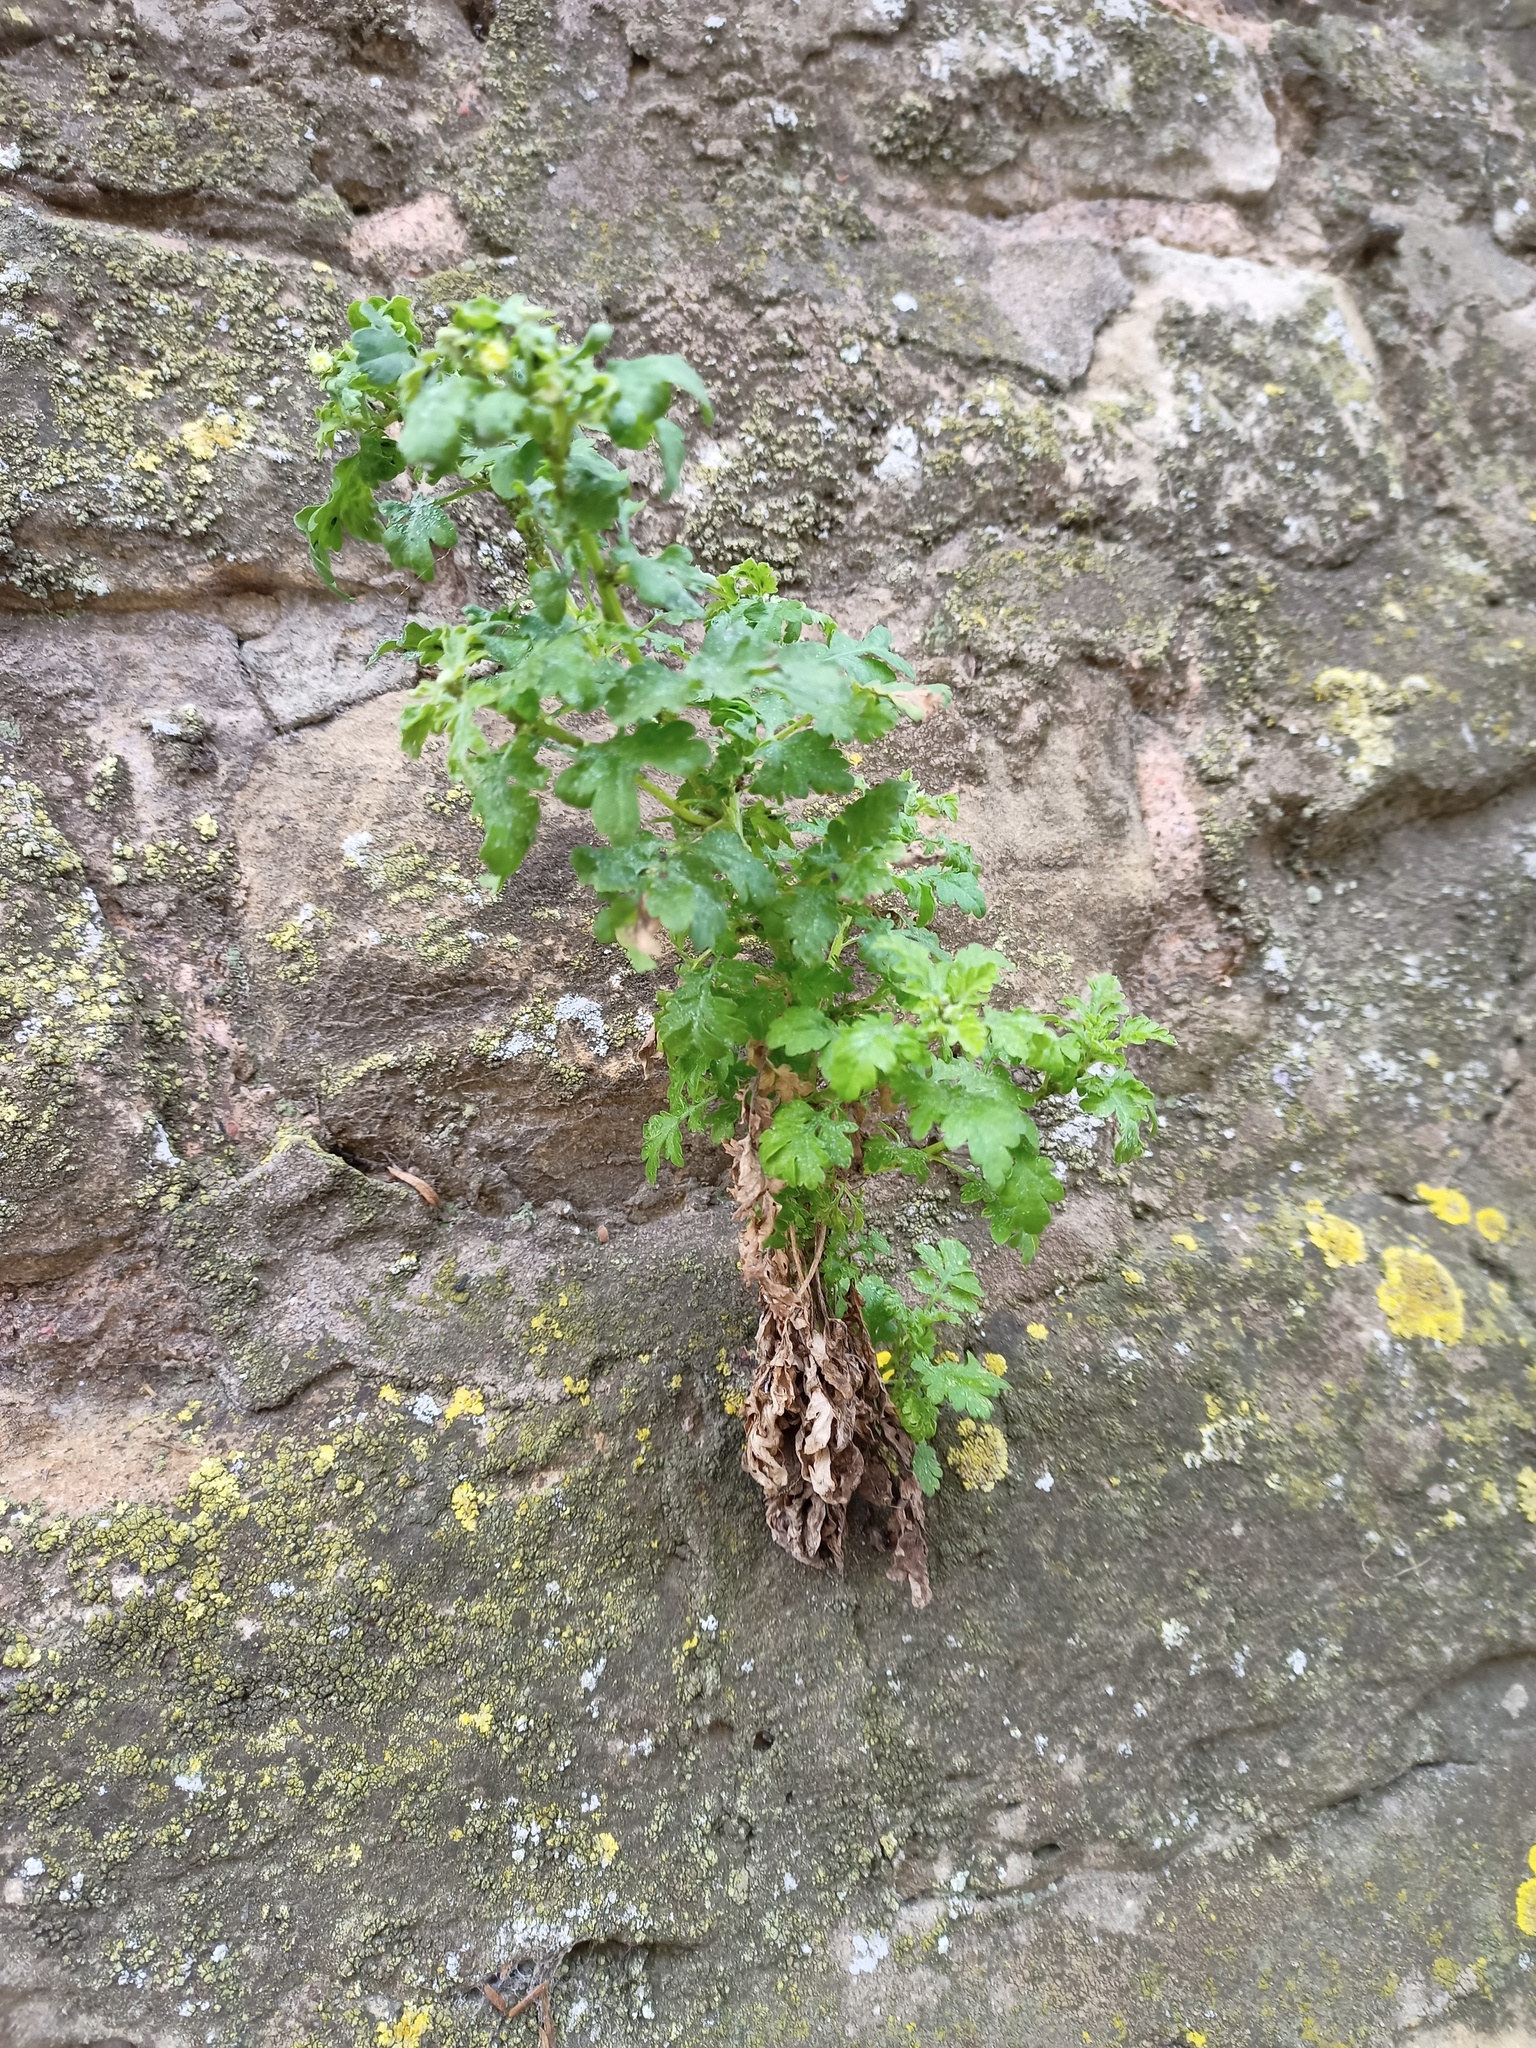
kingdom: Plantae
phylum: Tracheophyta
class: Magnoliopsida
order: Asterales
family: Asteraceae
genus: Tanacetum
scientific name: Tanacetum parthenium
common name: Feverfew
